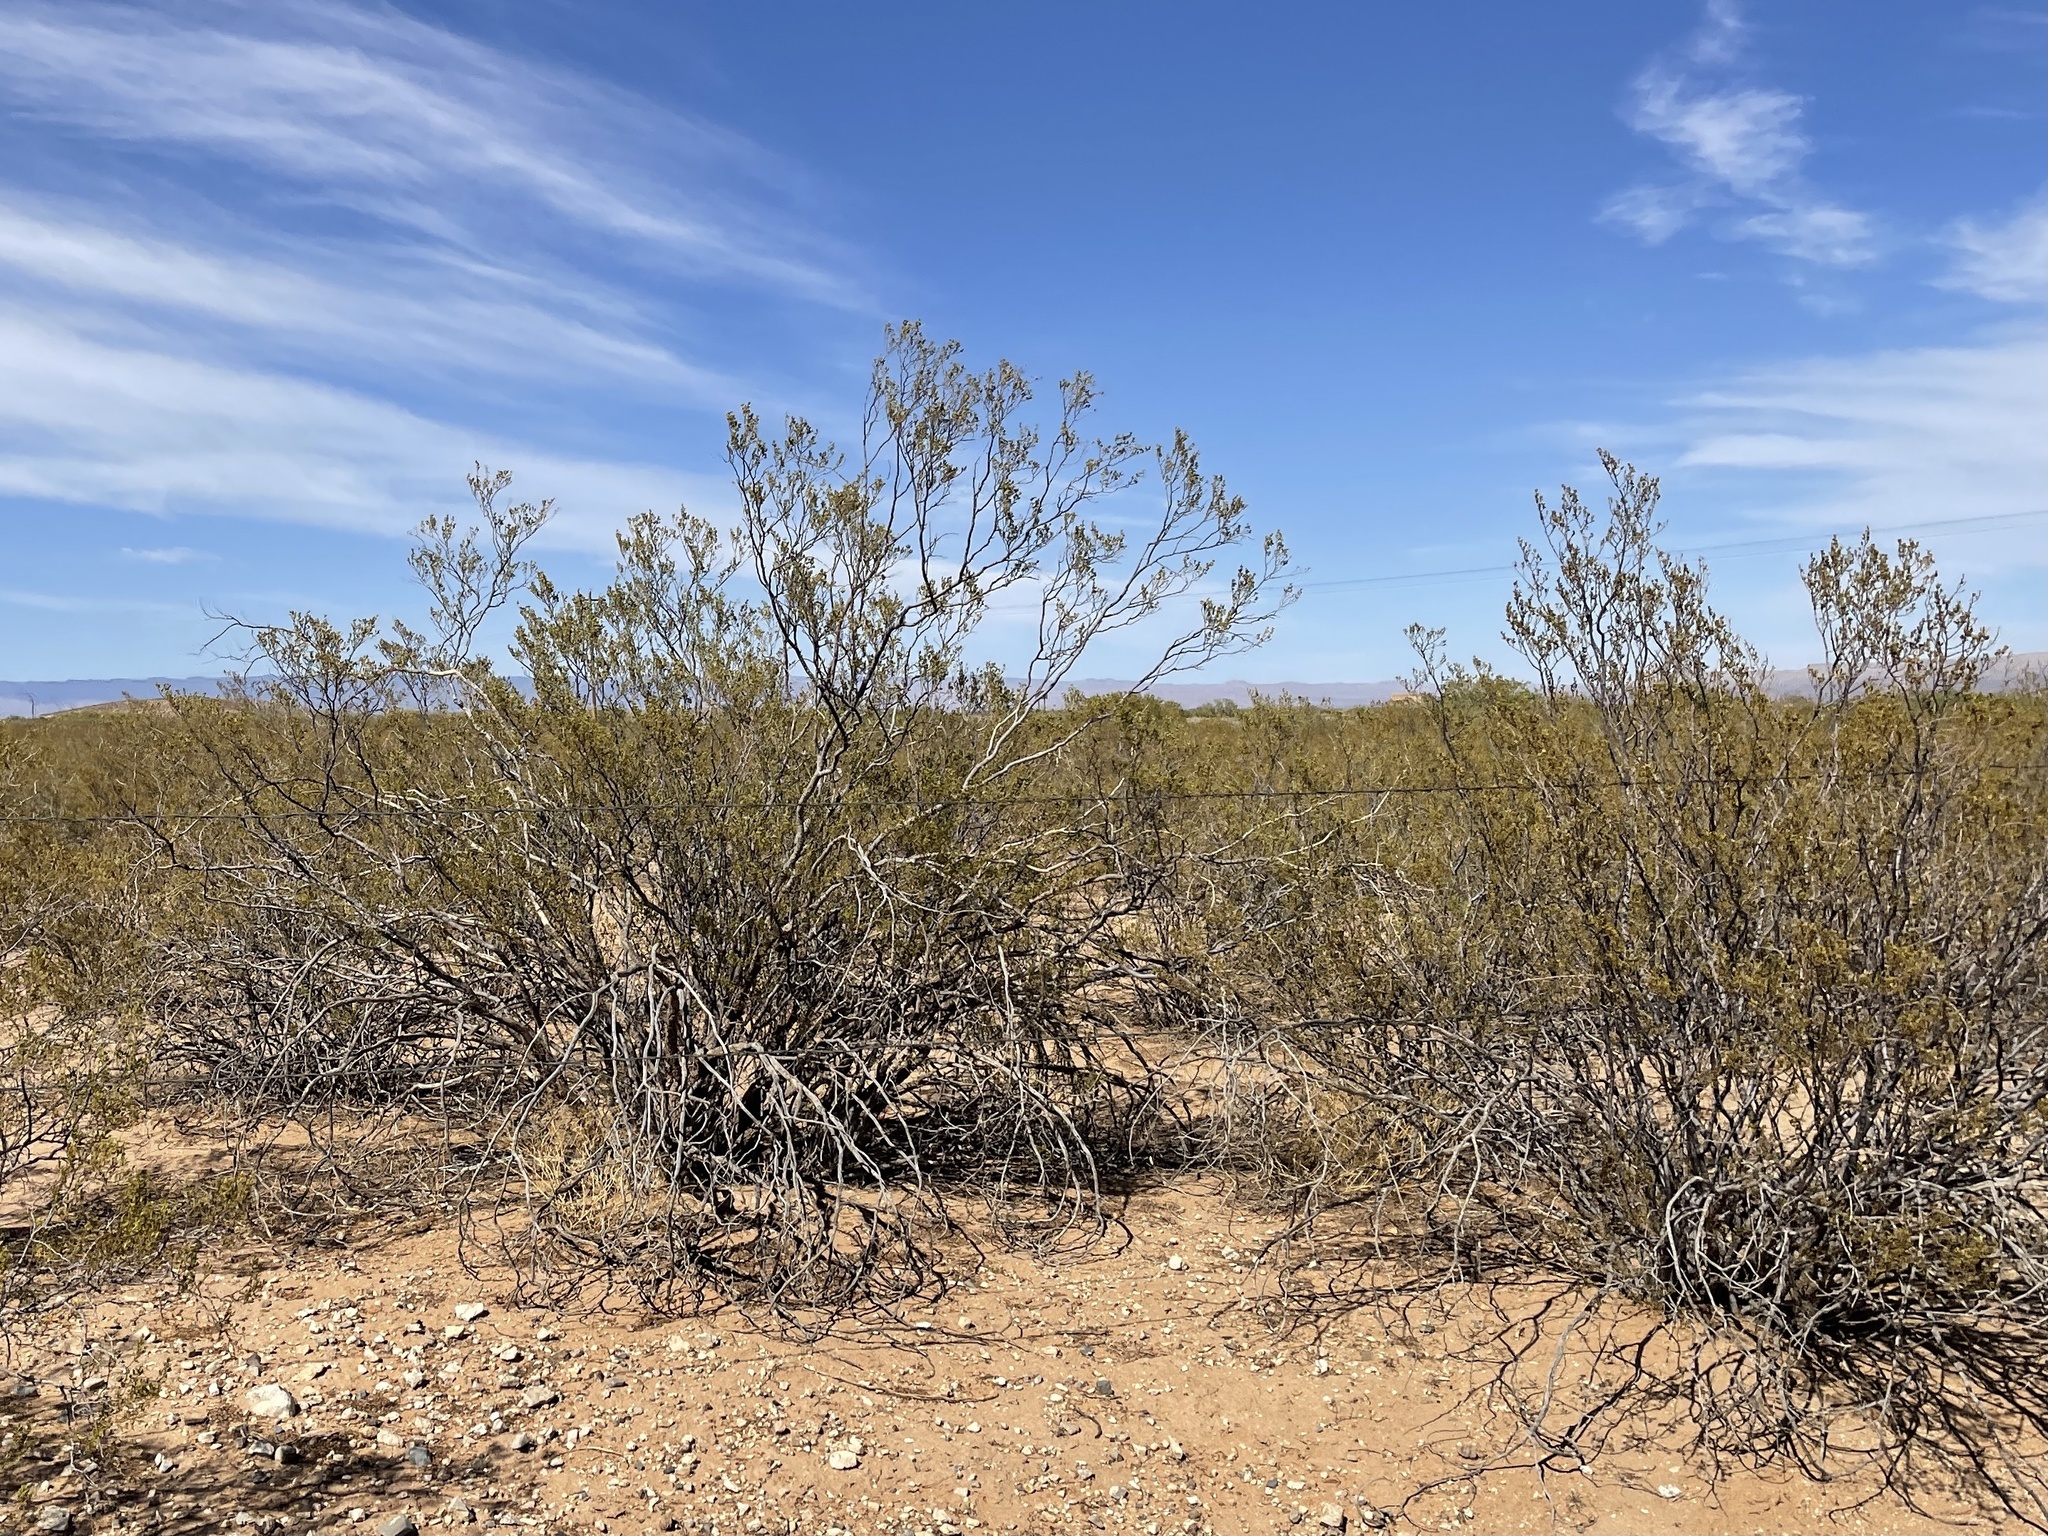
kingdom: Plantae
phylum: Tracheophyta
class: Magnoliopsida
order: Zygophyllales
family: Zygophyllaceae
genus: Larrea
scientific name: Larrea tridentata
